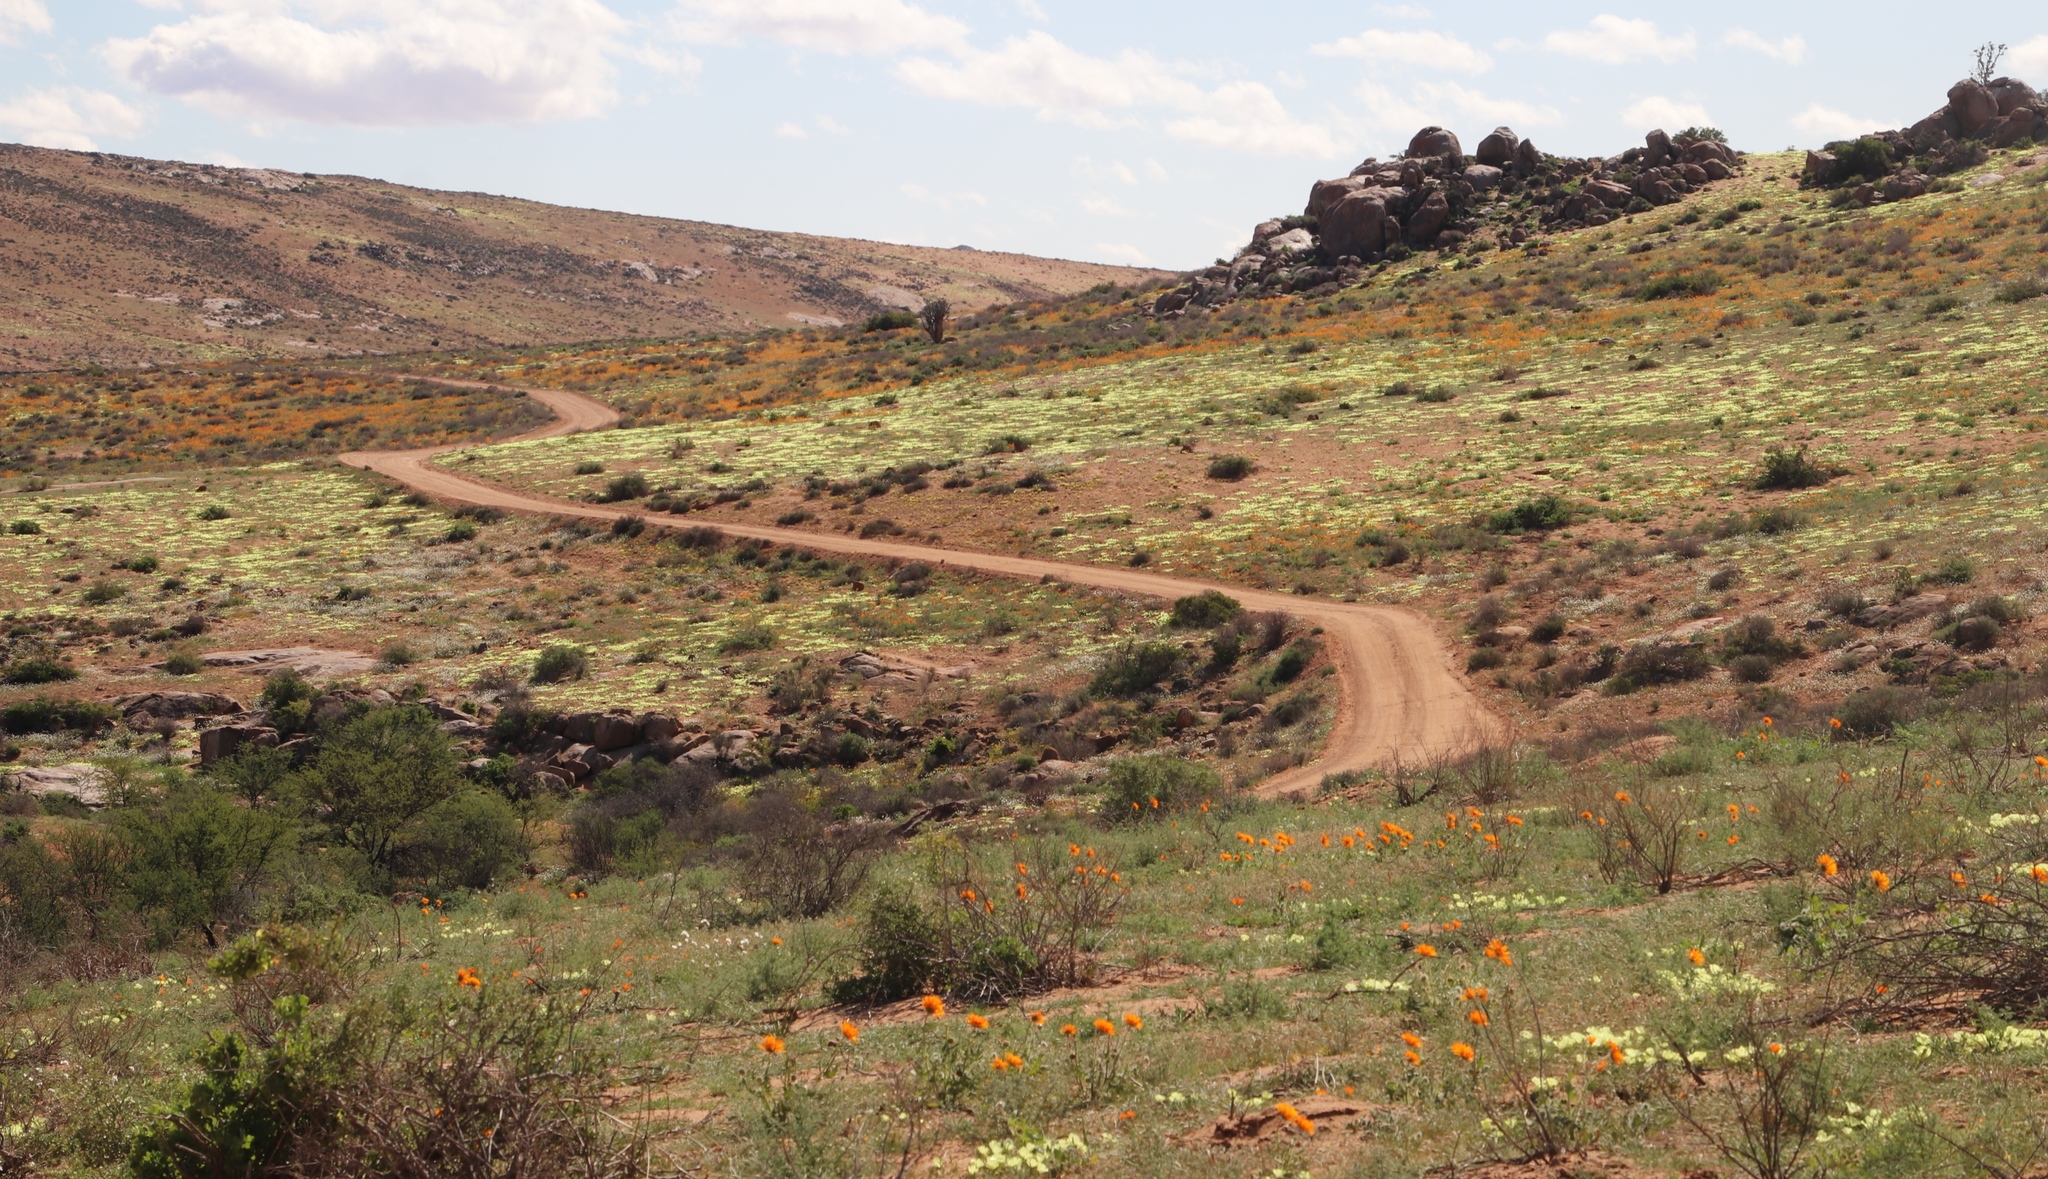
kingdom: Plantae
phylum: Tracheophyta
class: Magnoliopsida
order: Malvales
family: Neuradaceae
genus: Grielum
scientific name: Grielum humifusum
